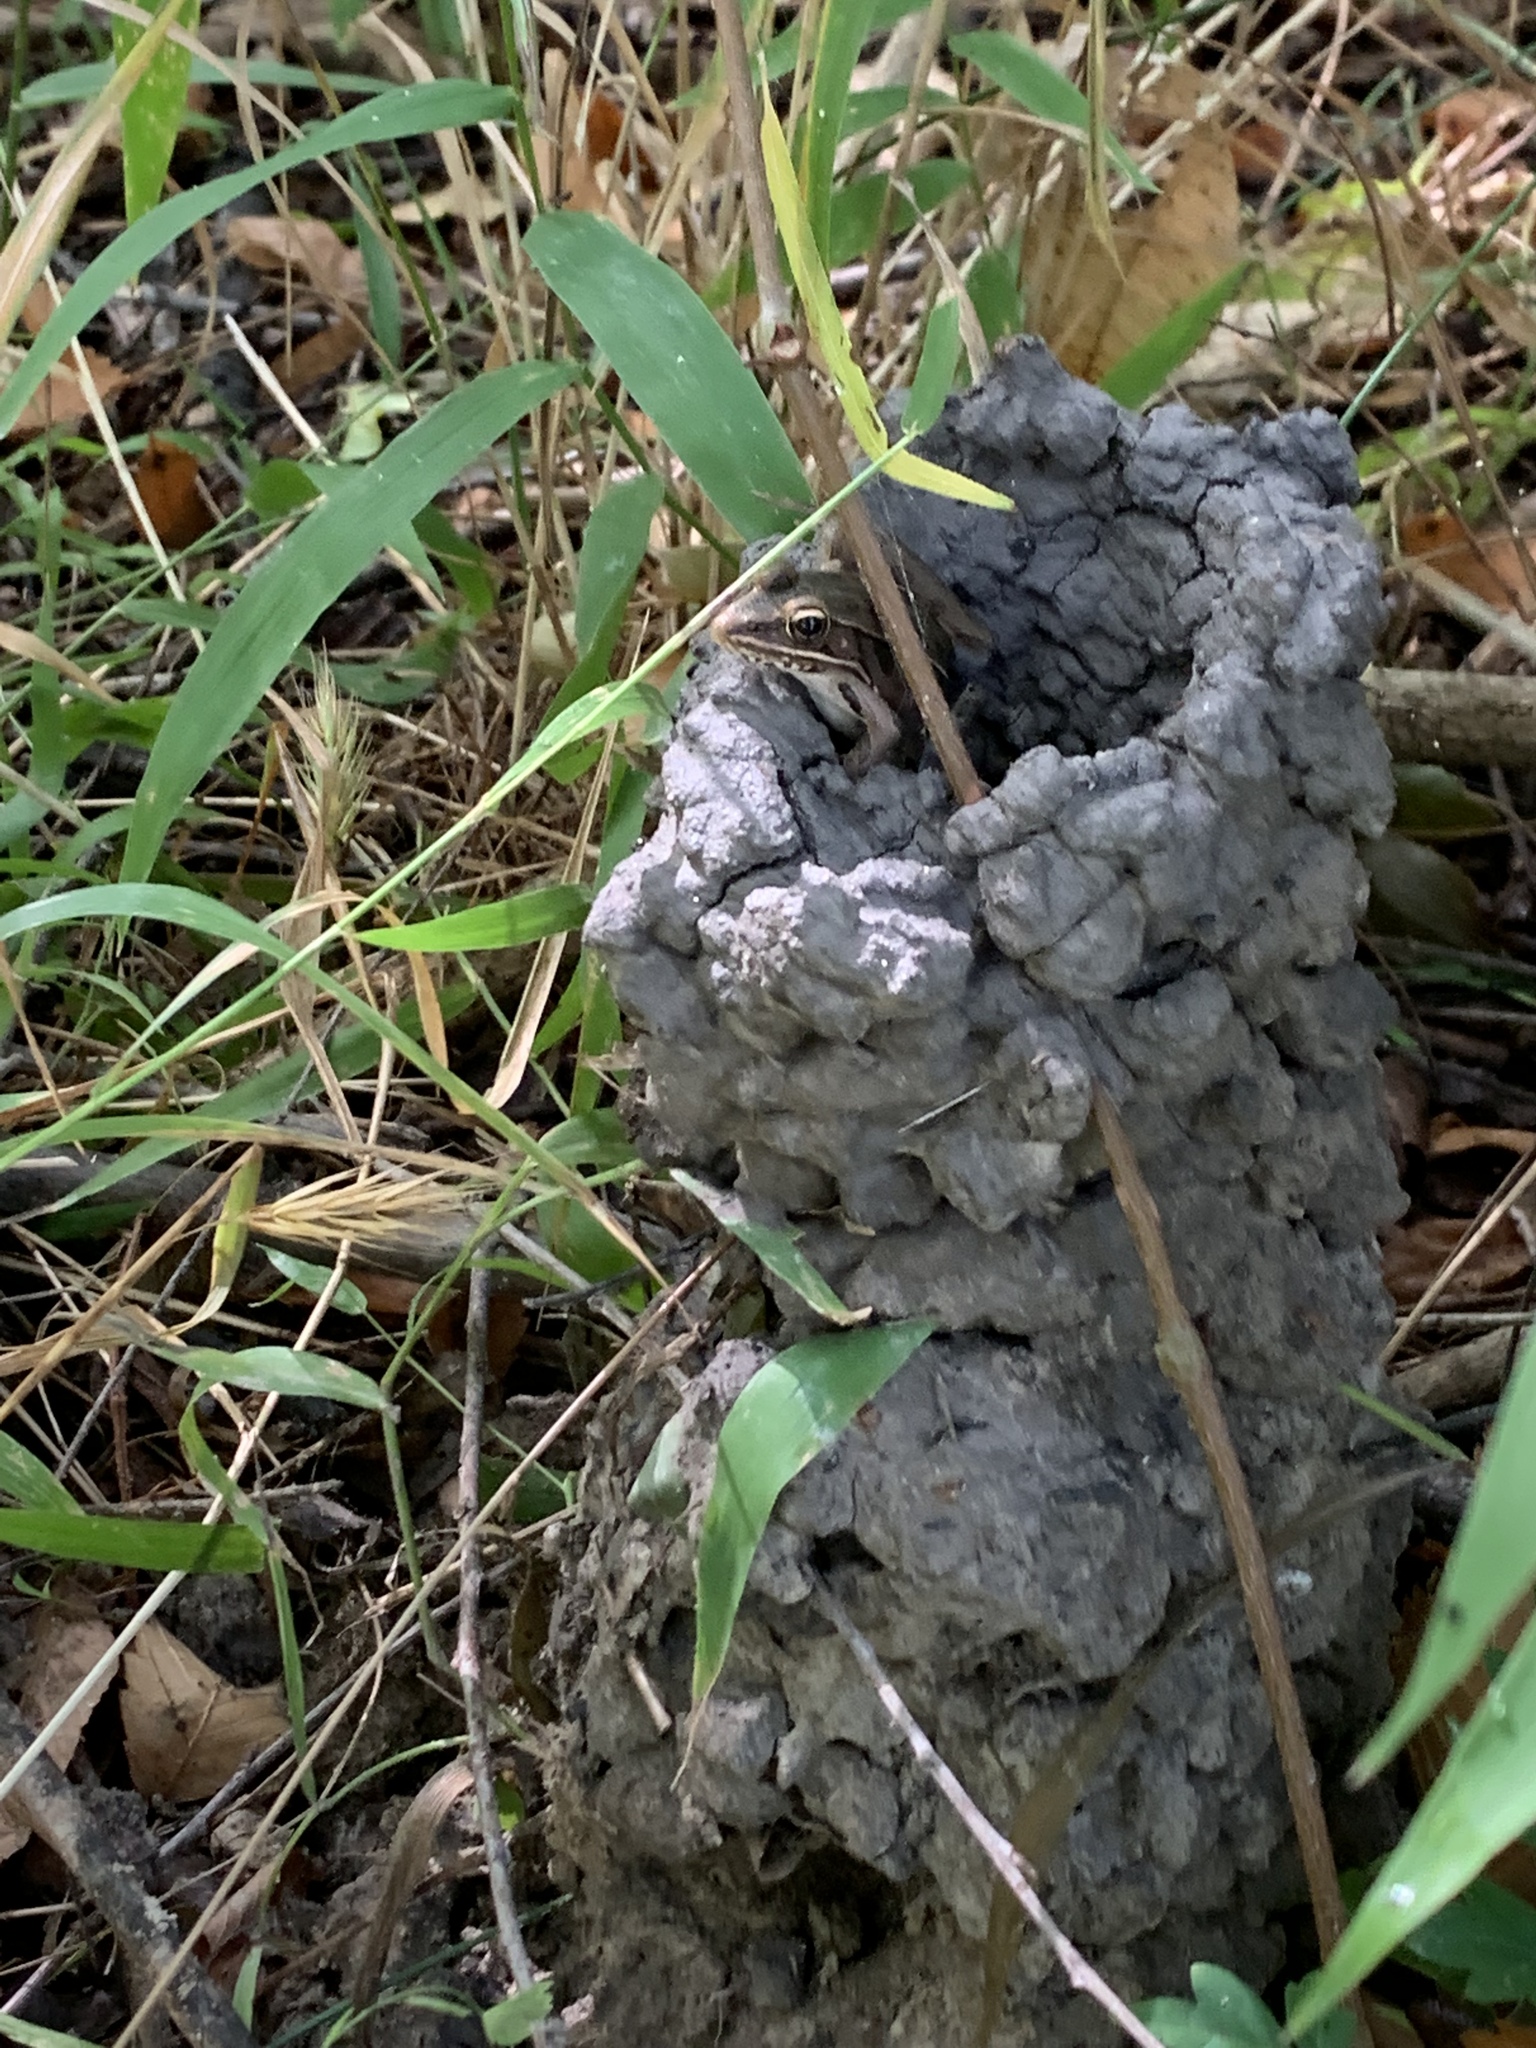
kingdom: Animalia
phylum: Chordata
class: Amphibia
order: Anura
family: Ranidae
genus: Lithobates
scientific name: Lithobates sphenocephalus
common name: Southern leopard frog
